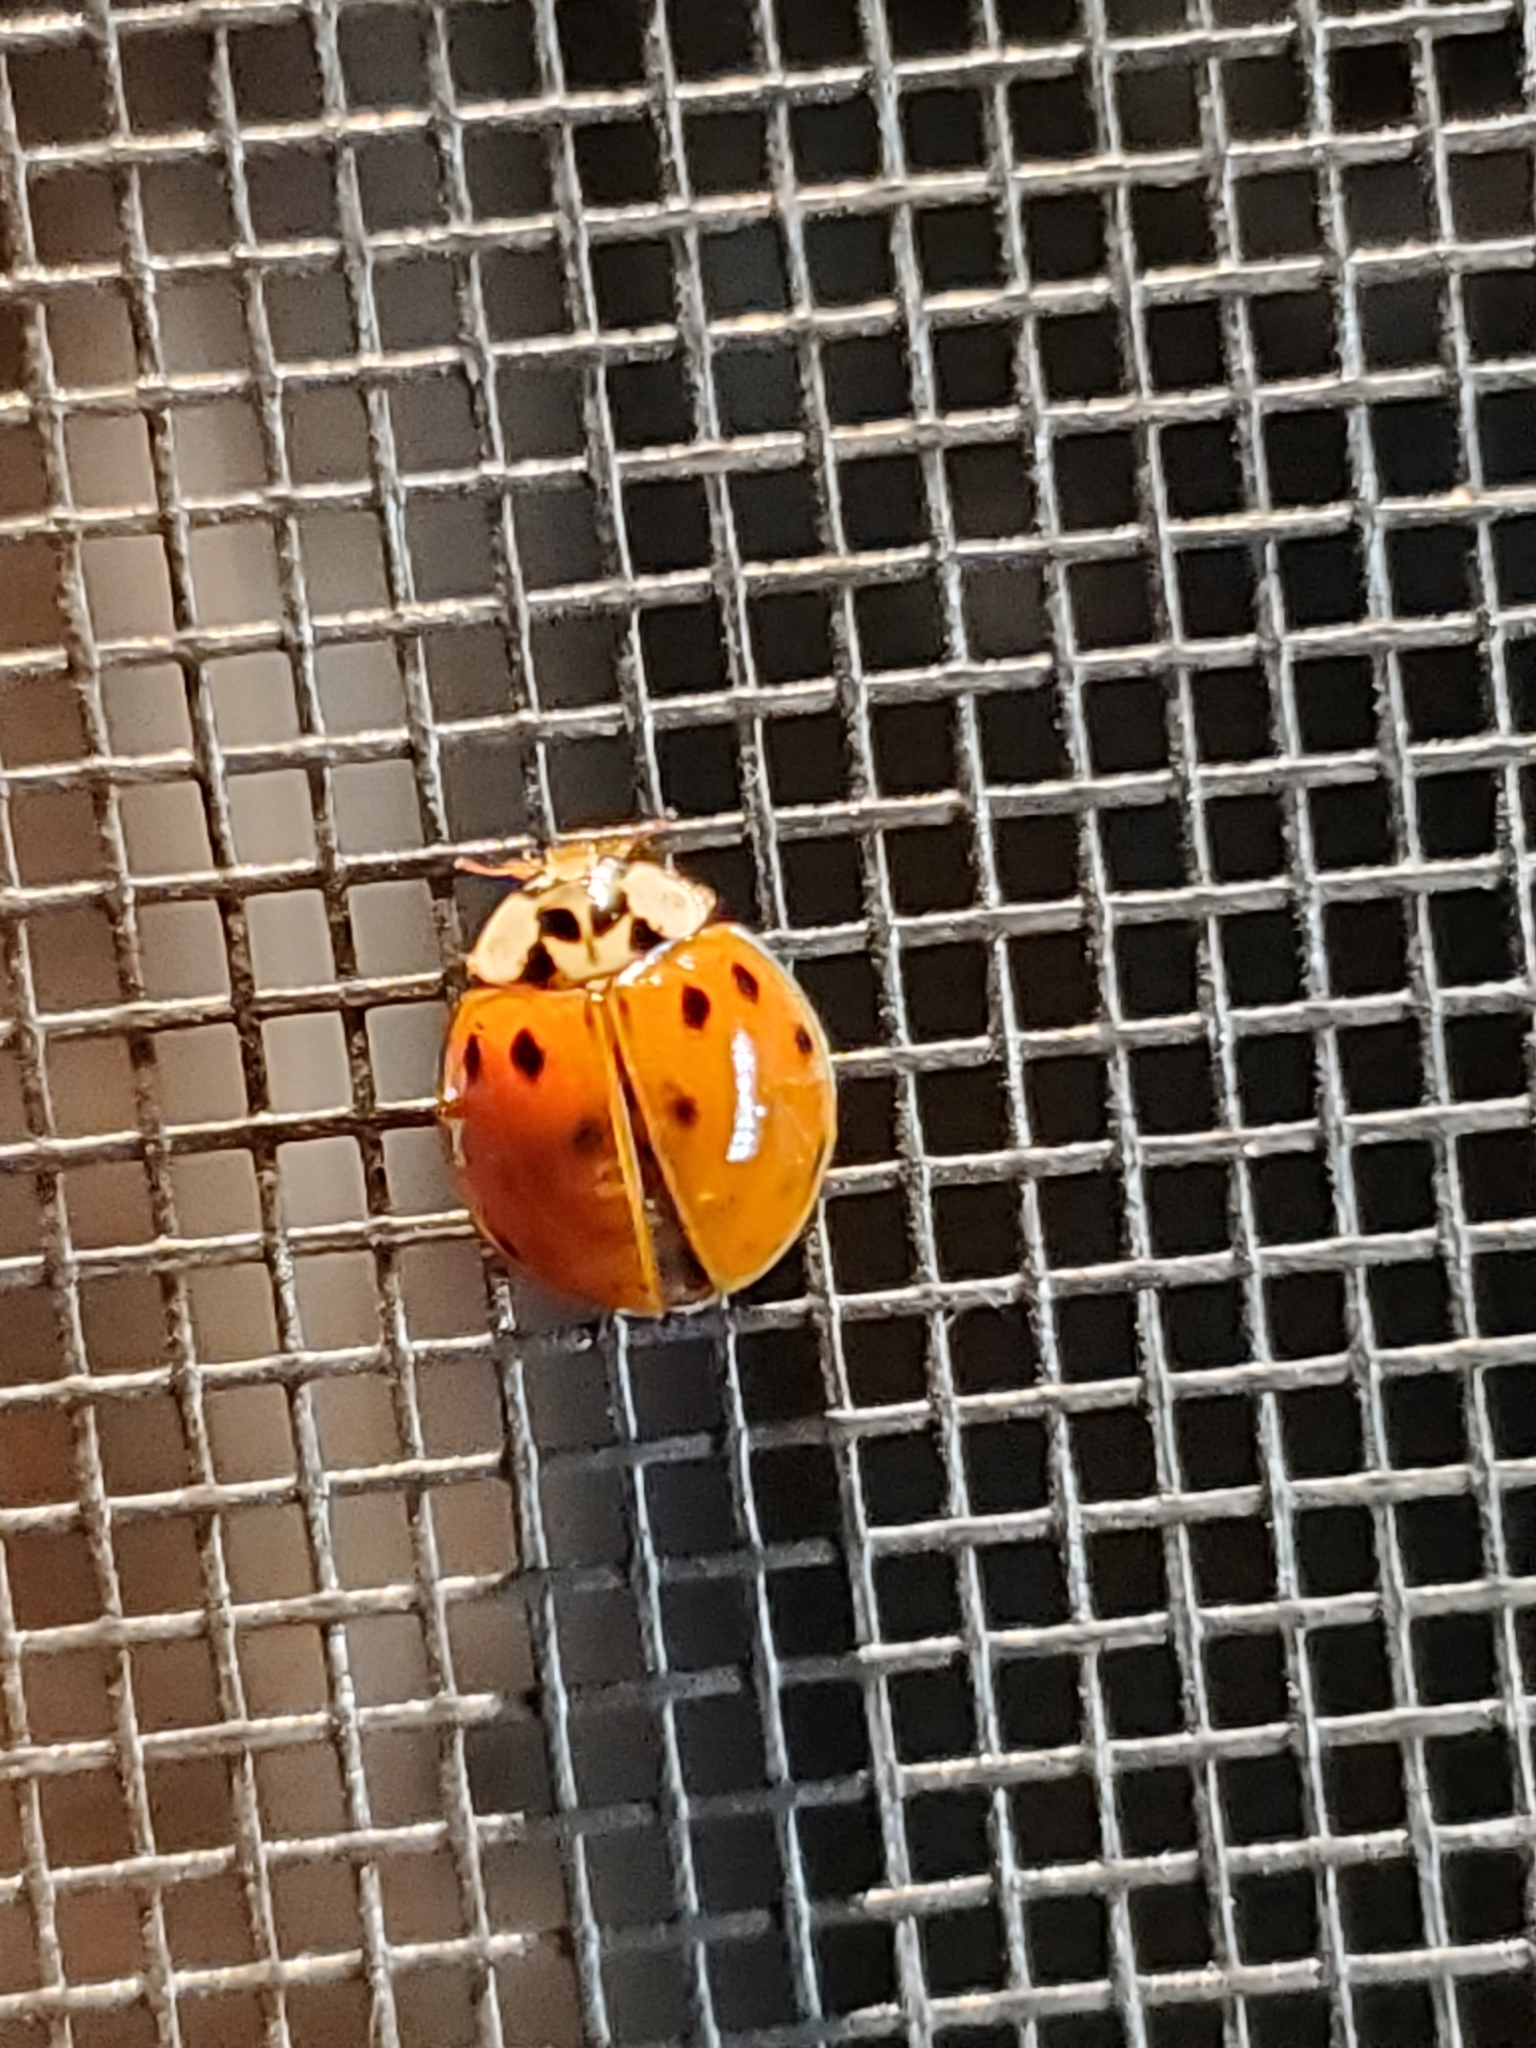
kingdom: Animalia
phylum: Arthropoda
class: Insecta
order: Coleoptera
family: Coccinellidae
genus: Harmonia
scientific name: Harmonia axyridis
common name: Harlequin ladybird
